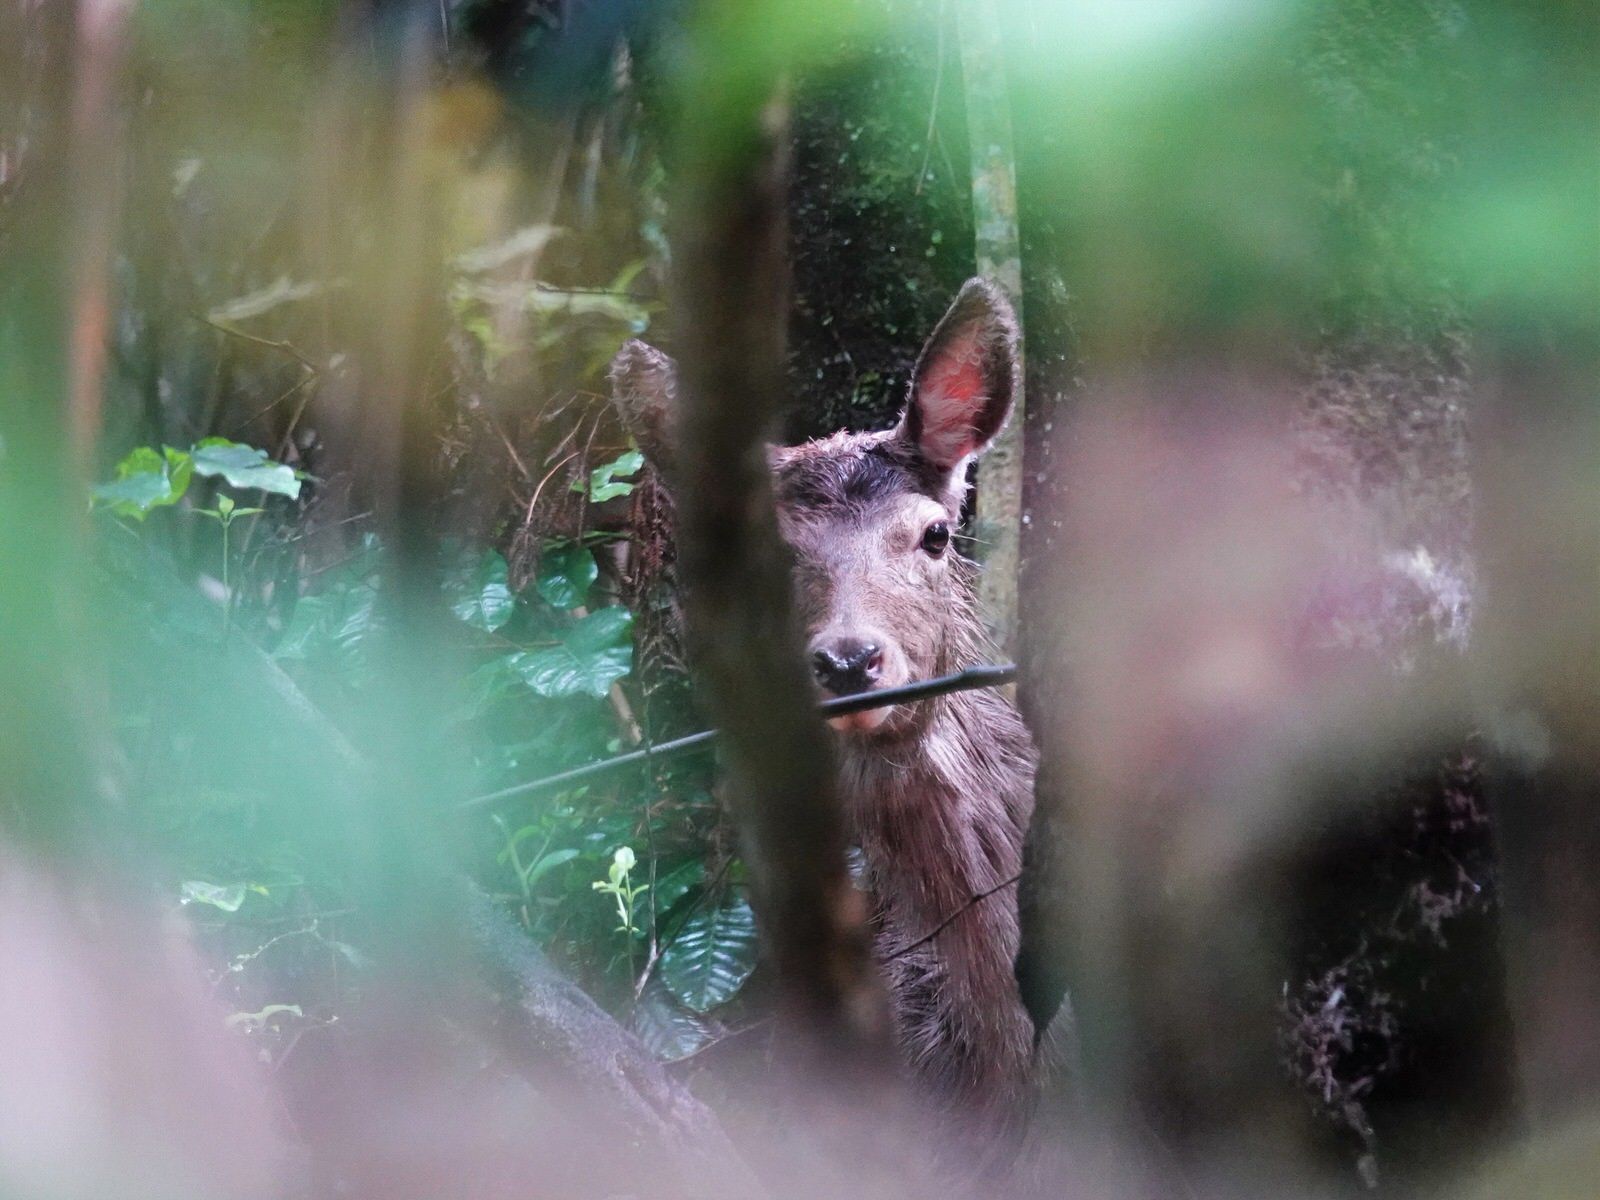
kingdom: Animalia
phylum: Chordata
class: Mammalia
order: Artiodactyla
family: Cervidae
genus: Cervus
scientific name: Cervus elaphus
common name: Red deer
